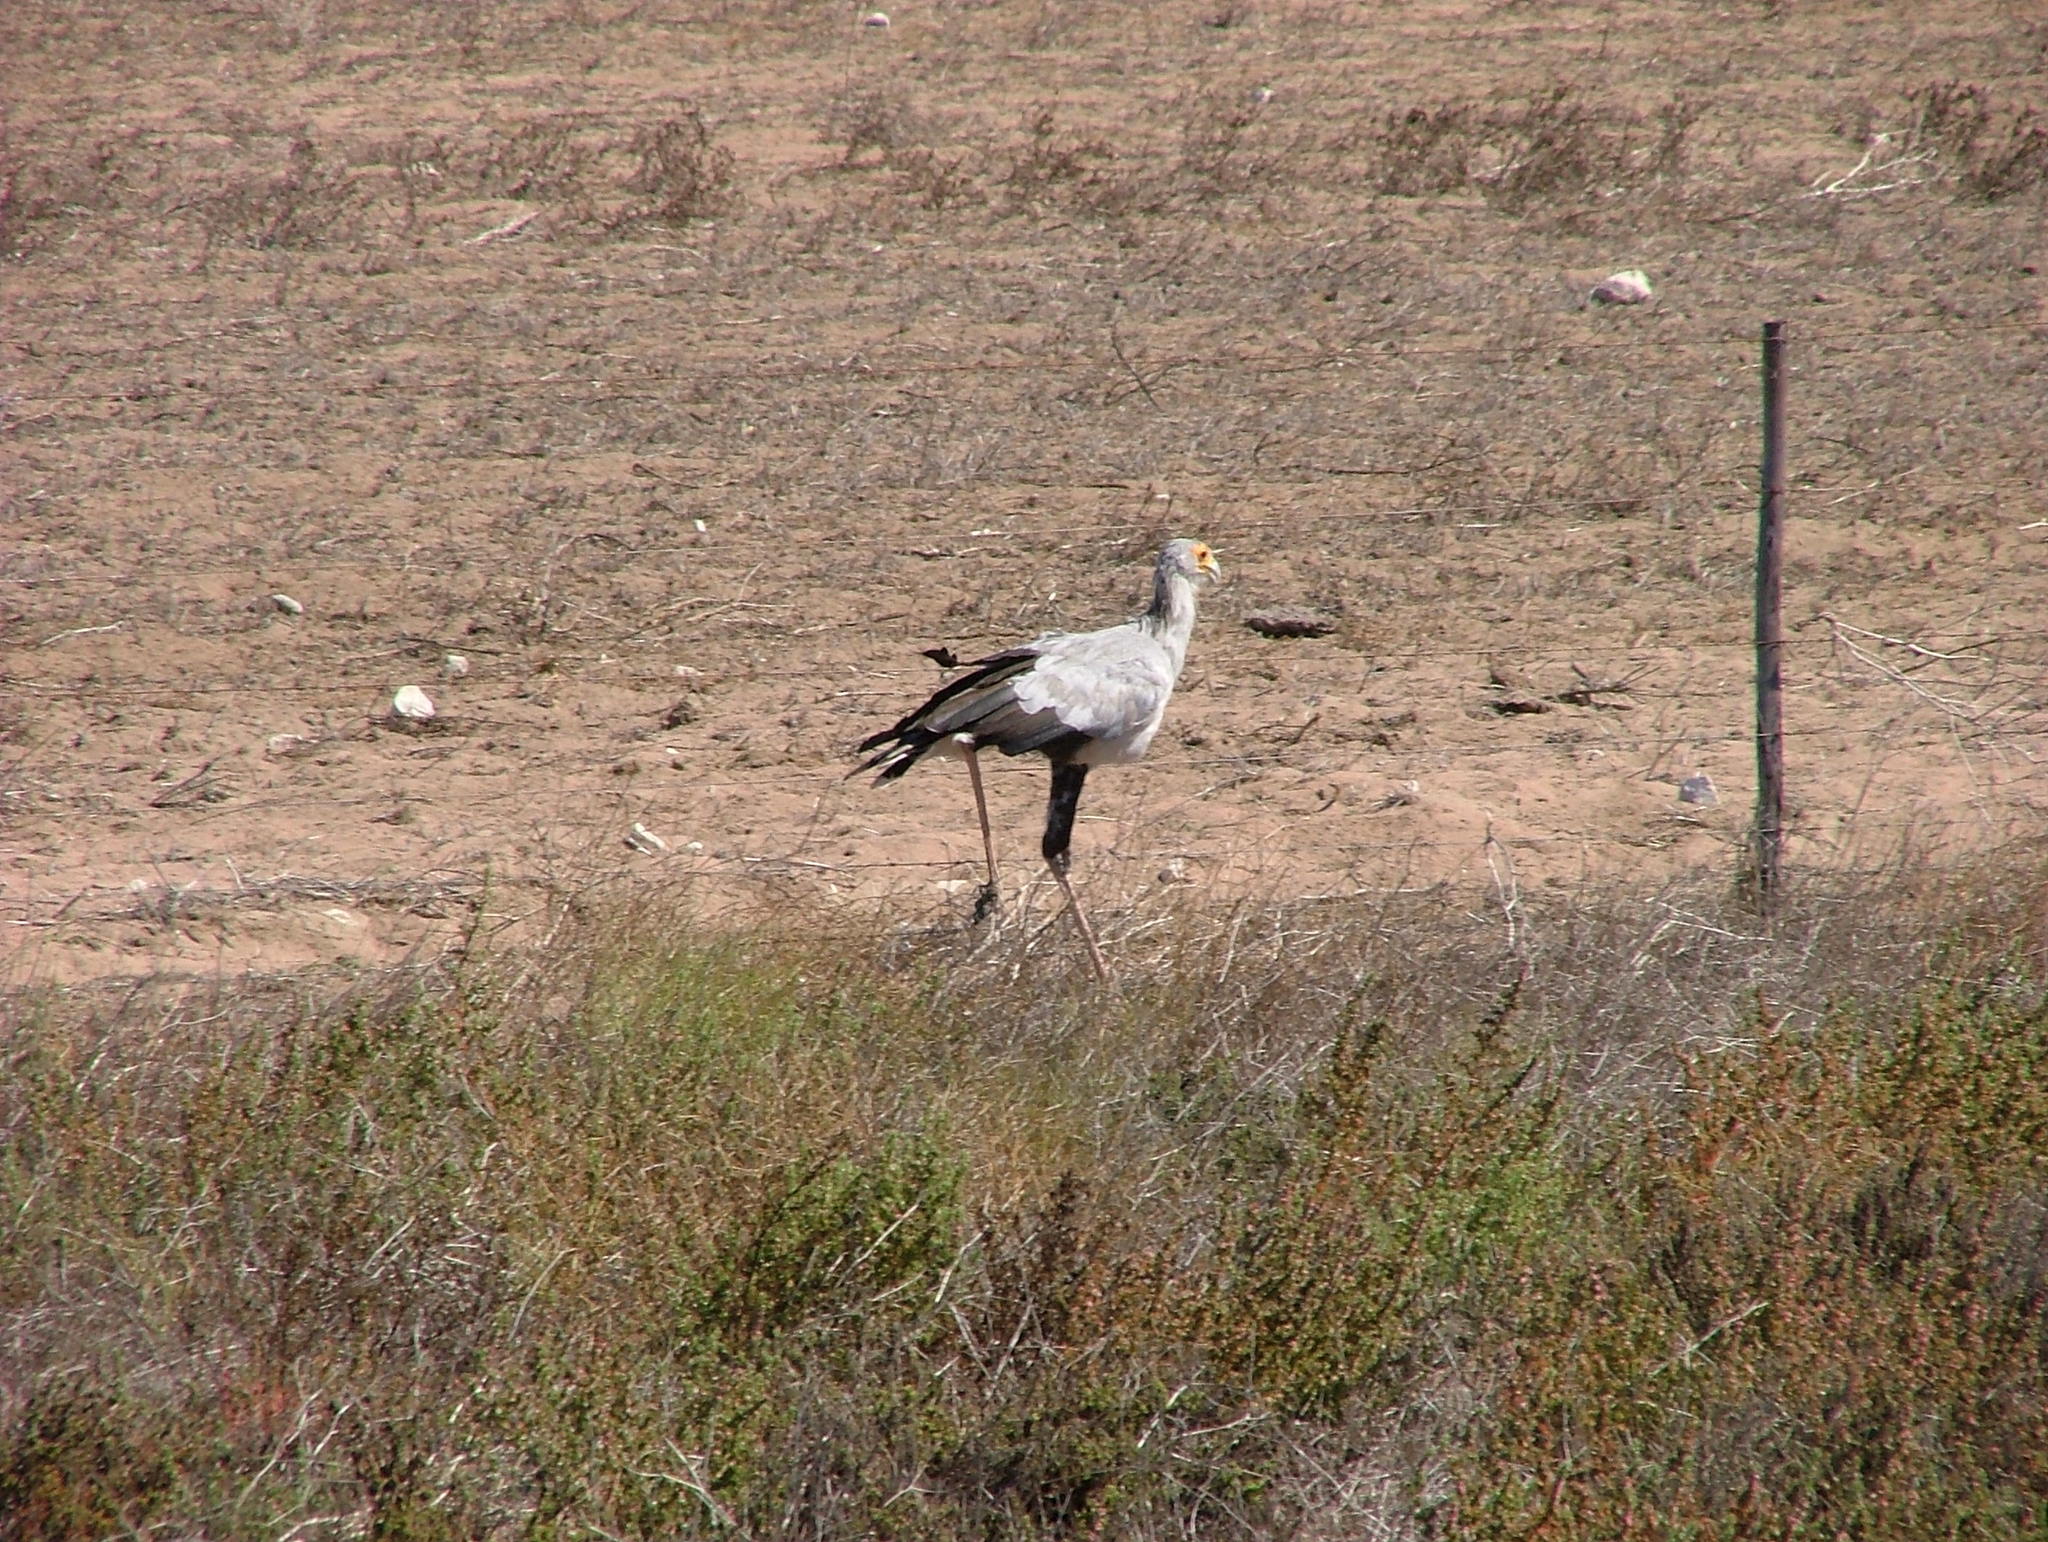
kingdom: Animalia
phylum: Chordata
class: Aves
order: Accipitriformes
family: Sagittariidae
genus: Sagittarius
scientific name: Sagittarius serpentarius
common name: Secretarybird
